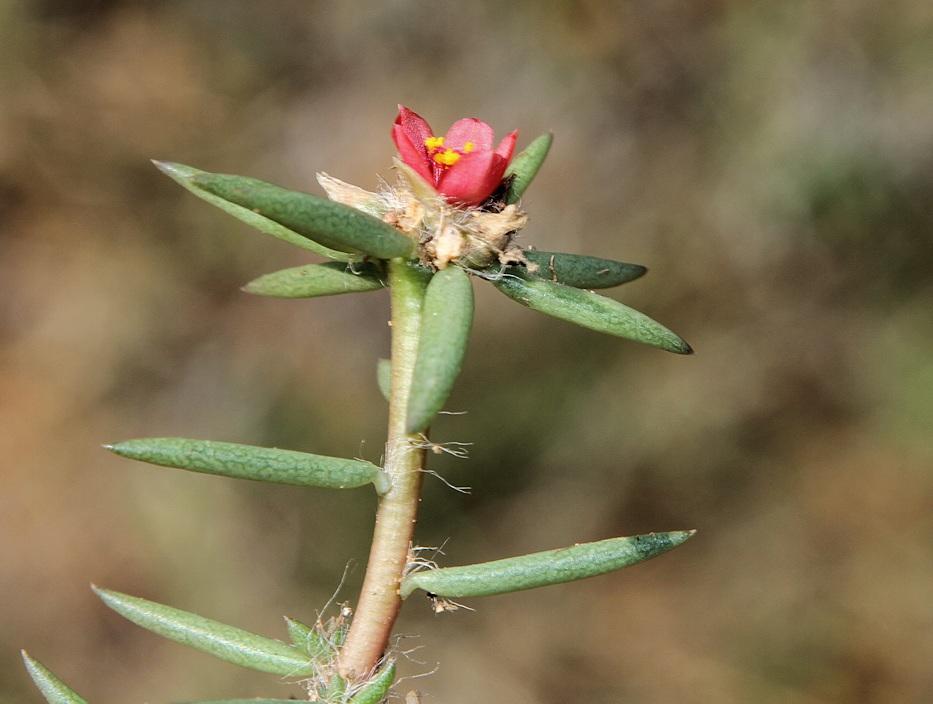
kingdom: Plantae
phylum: Tracheophyta
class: Magnoliopsida
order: Caryophyllales
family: Portulacaceae
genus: Portulaca
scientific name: Portulaca kermesina
